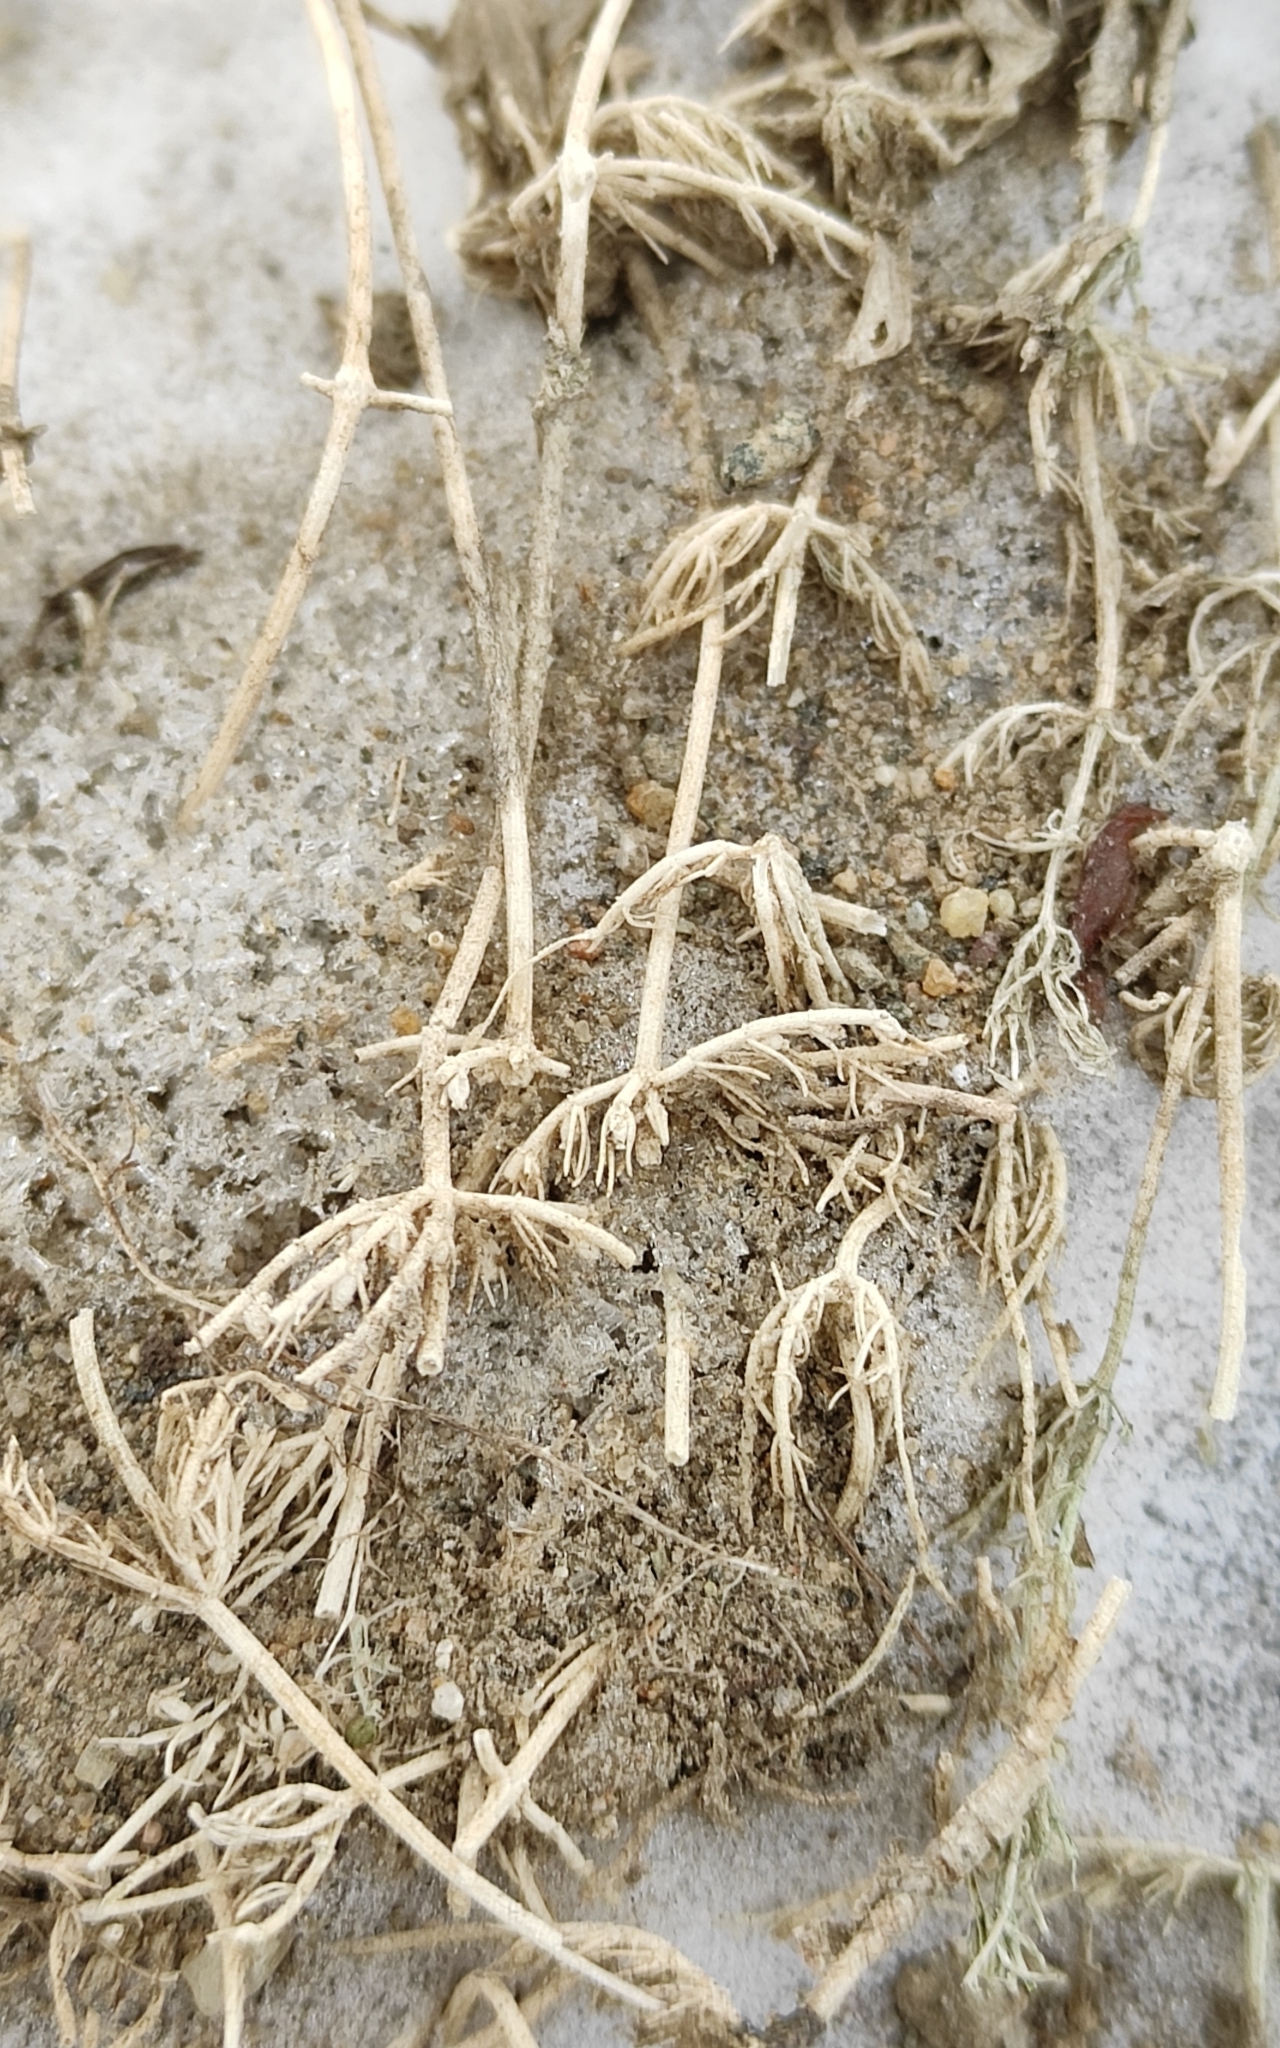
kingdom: Plantae
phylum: Charophyta
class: Charophyceae
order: Charales
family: Characeae
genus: Chara
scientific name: Chara contraria
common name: Opposite stonewort
